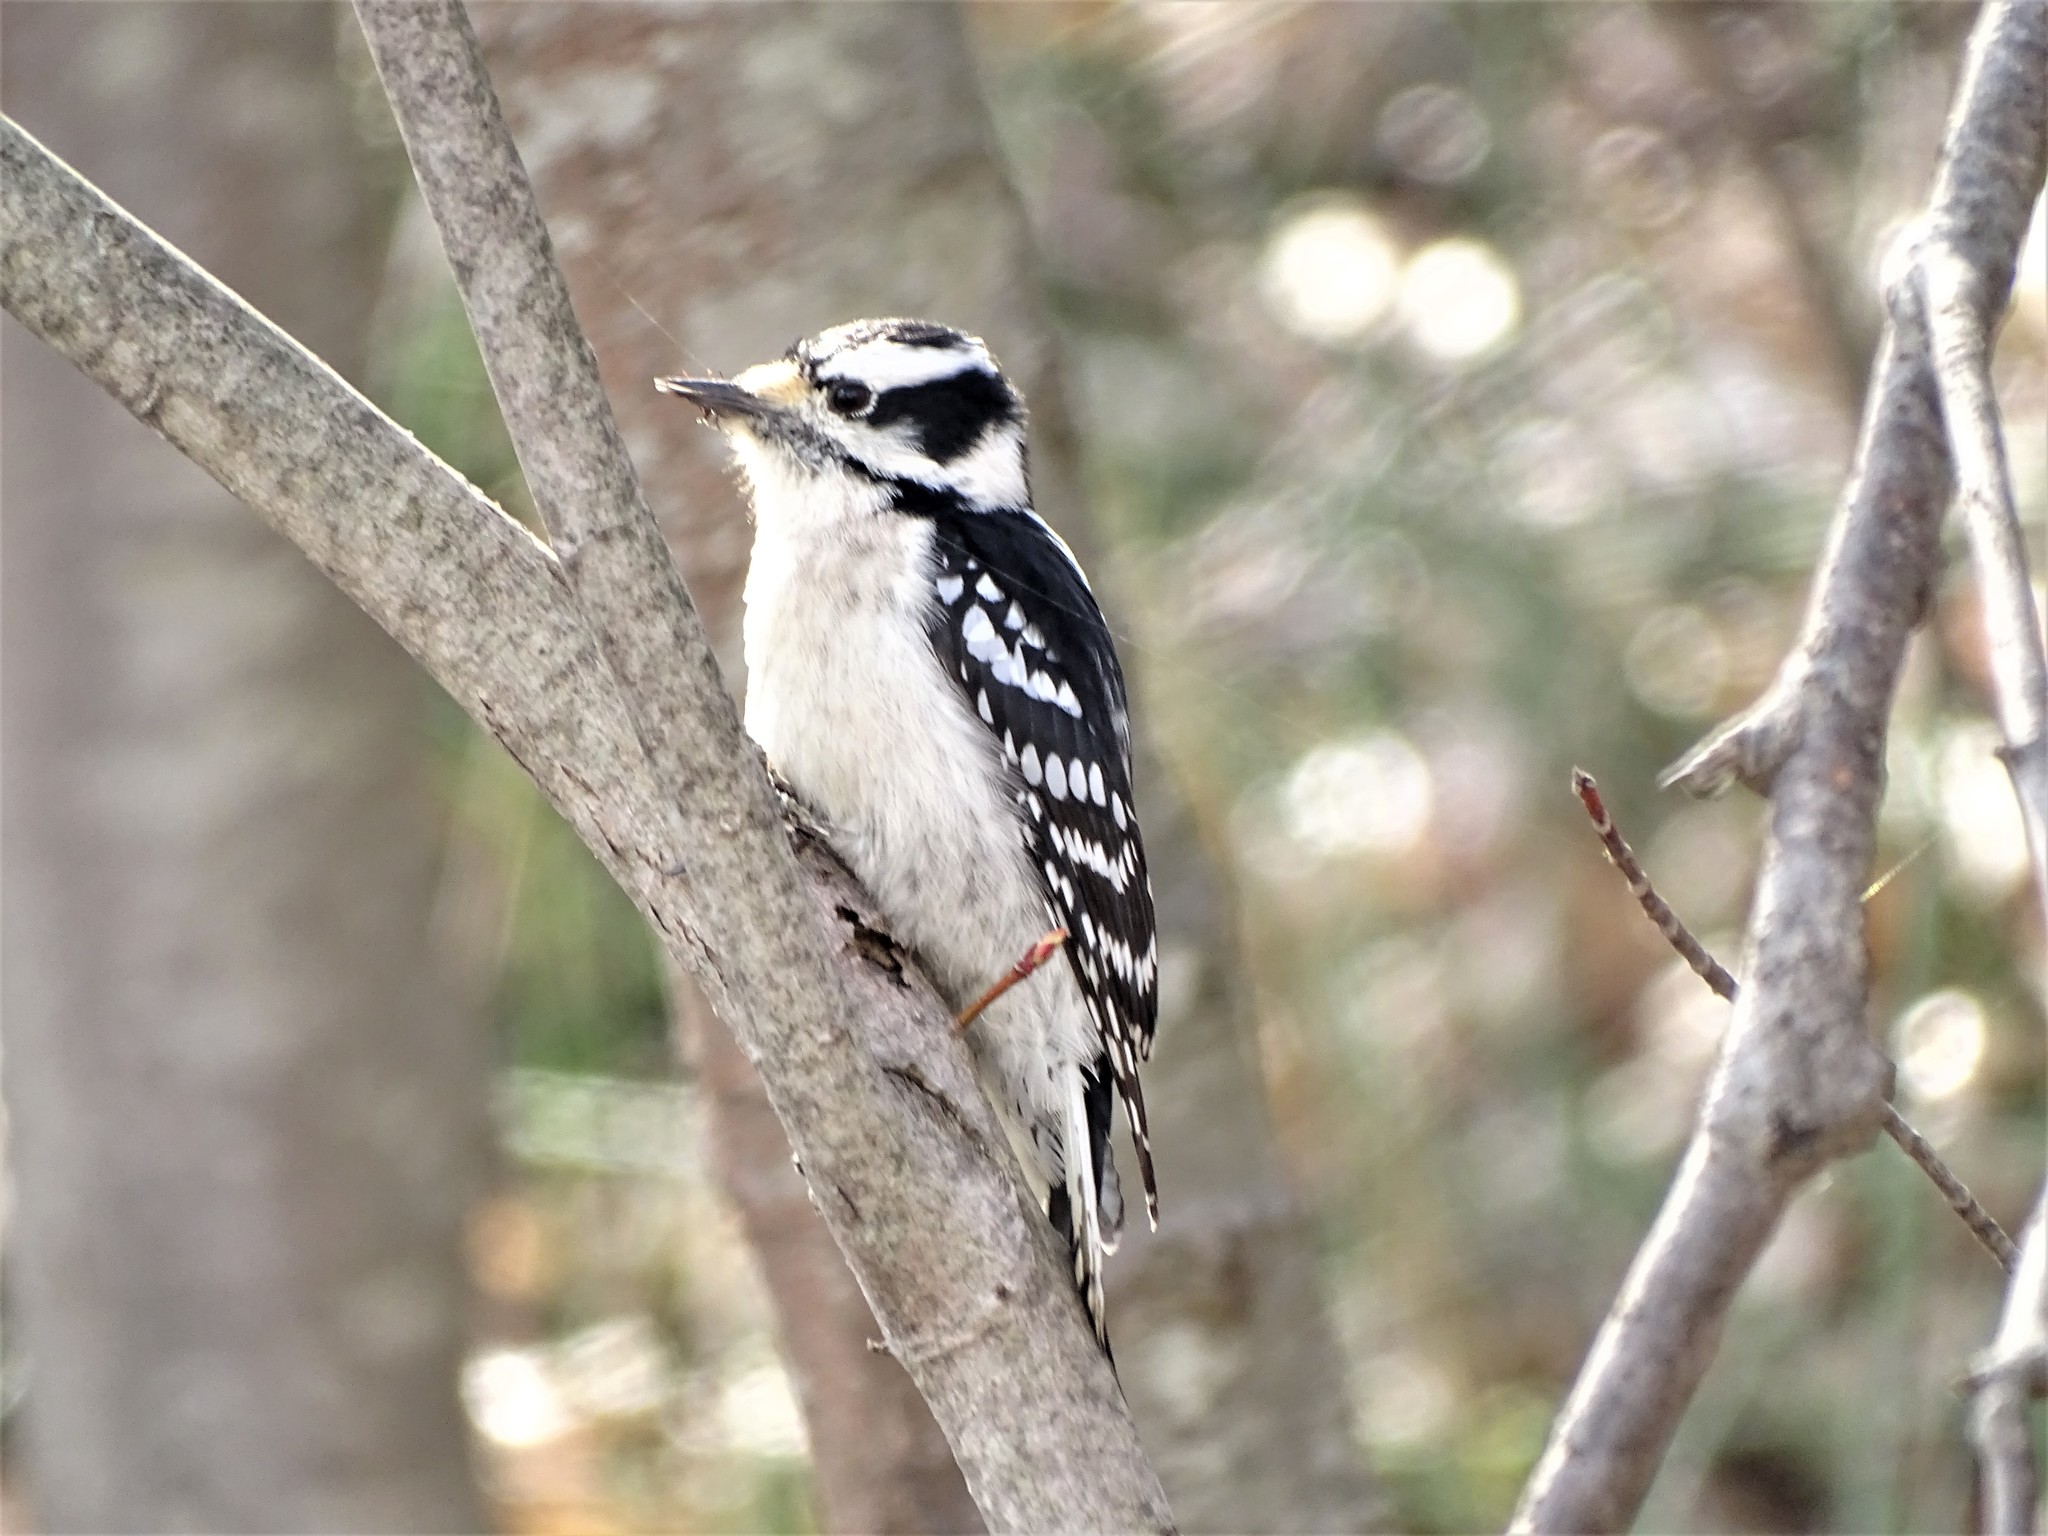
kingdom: Animalia
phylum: Chordata
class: Aves
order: Piciformes
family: Picidae
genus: Dryobates
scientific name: Dryobates pubescens
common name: Downy woodpecker
